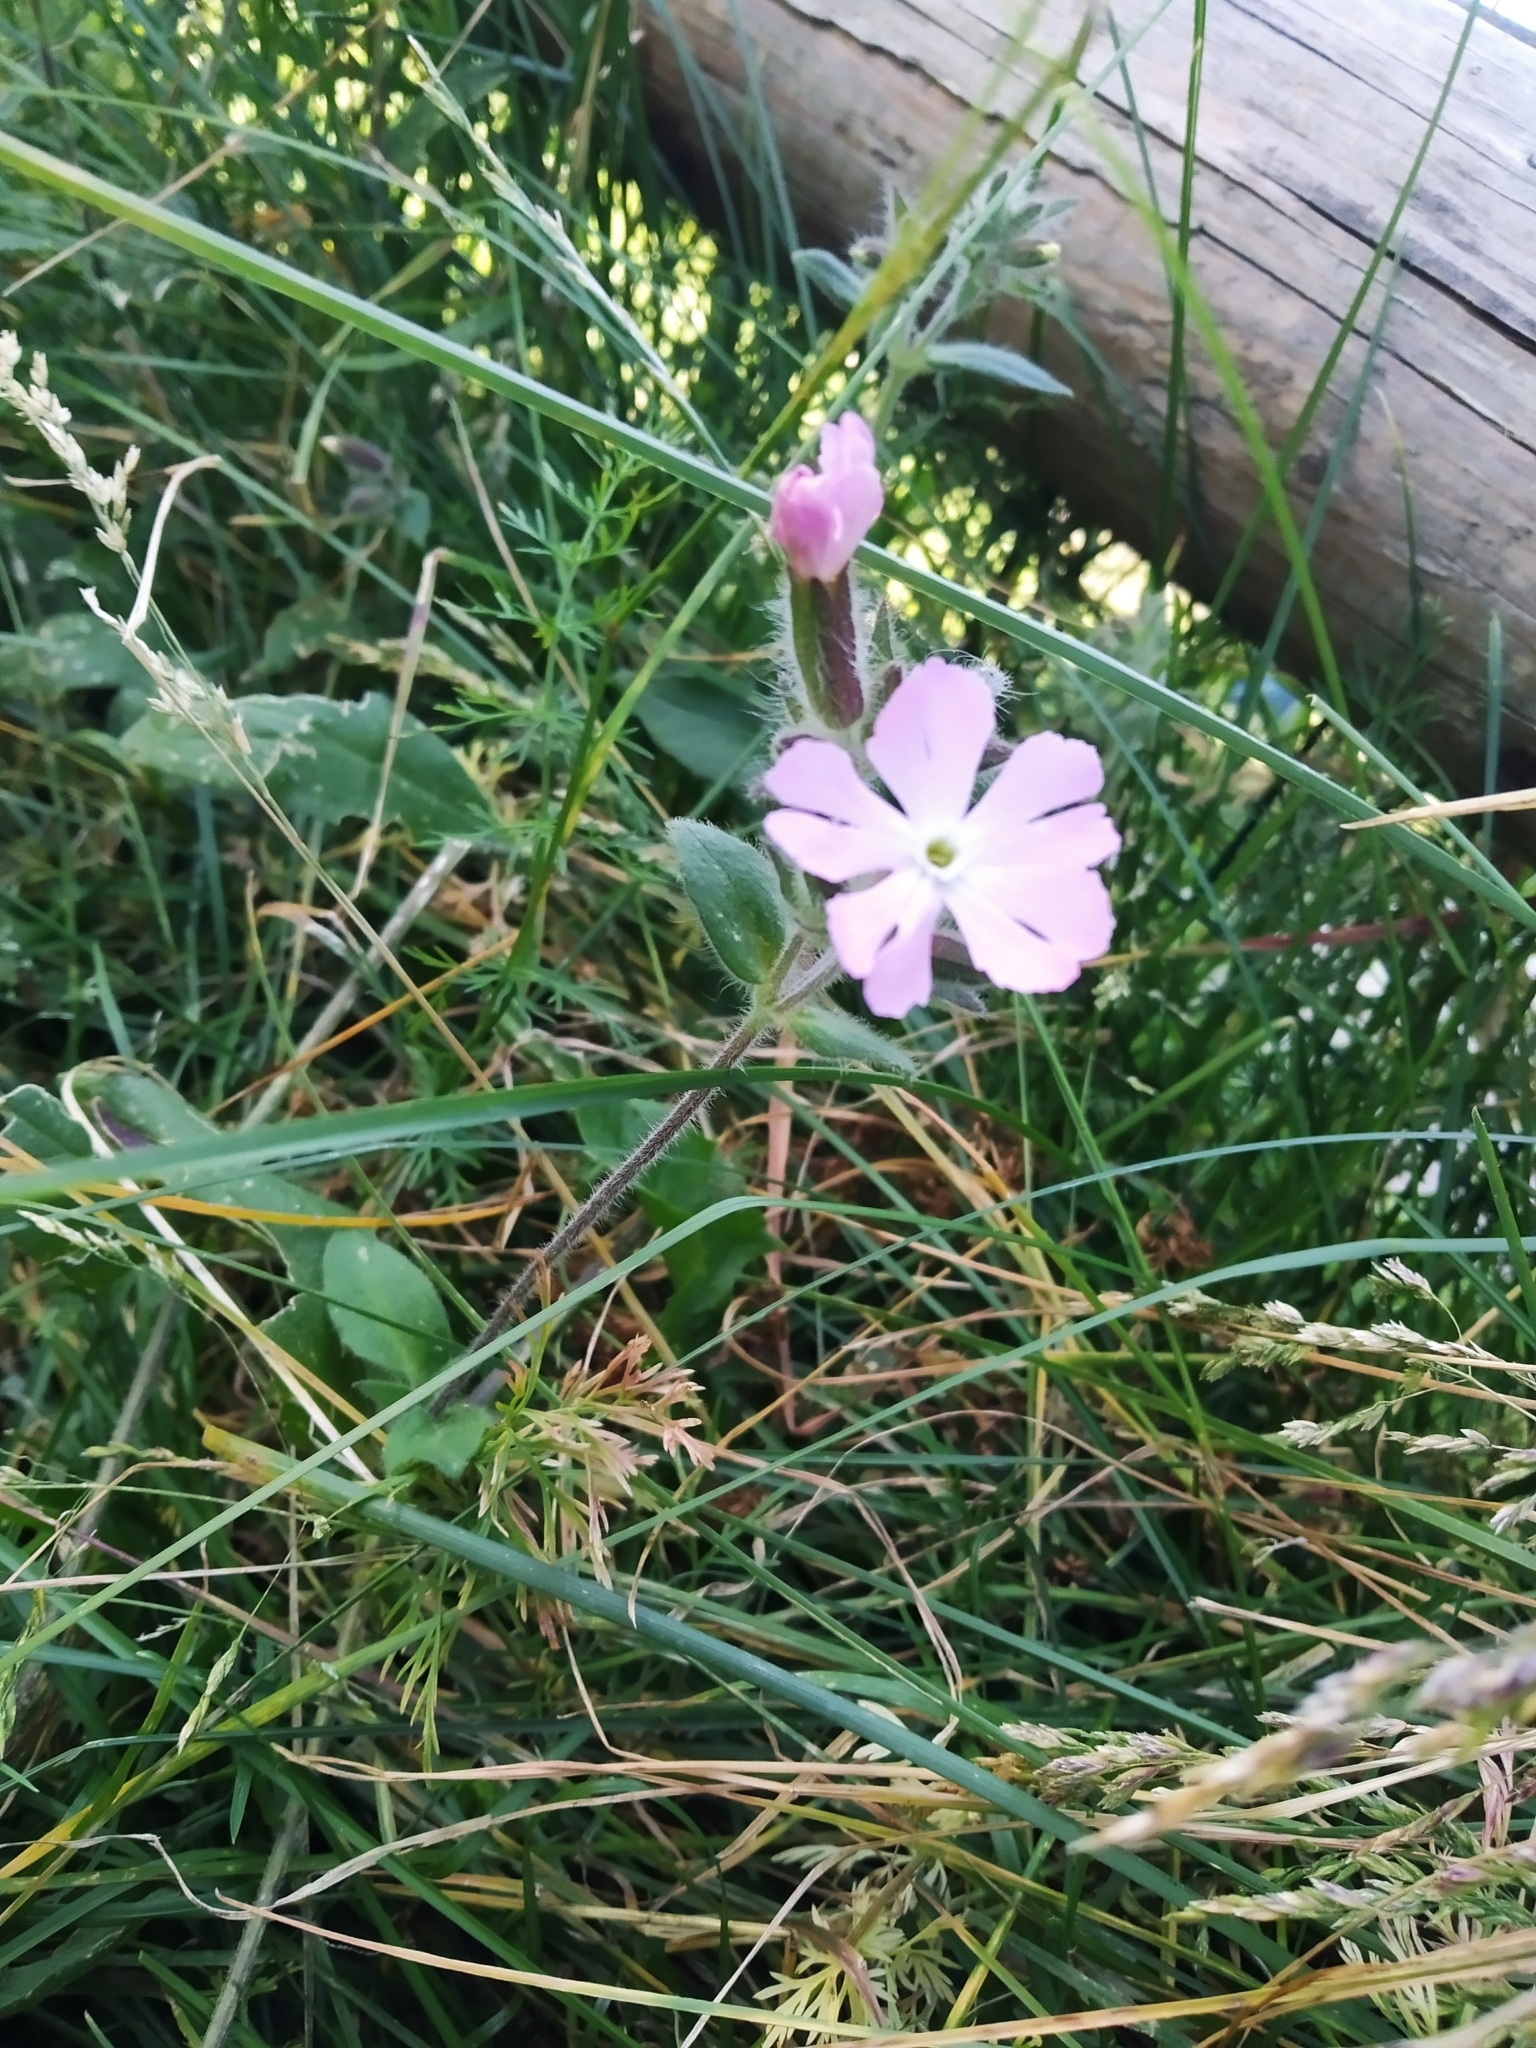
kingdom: Plantae
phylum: Tracheophyta
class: Magnoliopsida
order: Caryophyllales
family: Caryophyllaceae
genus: Silene
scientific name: Silene dioica
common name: Red campion
